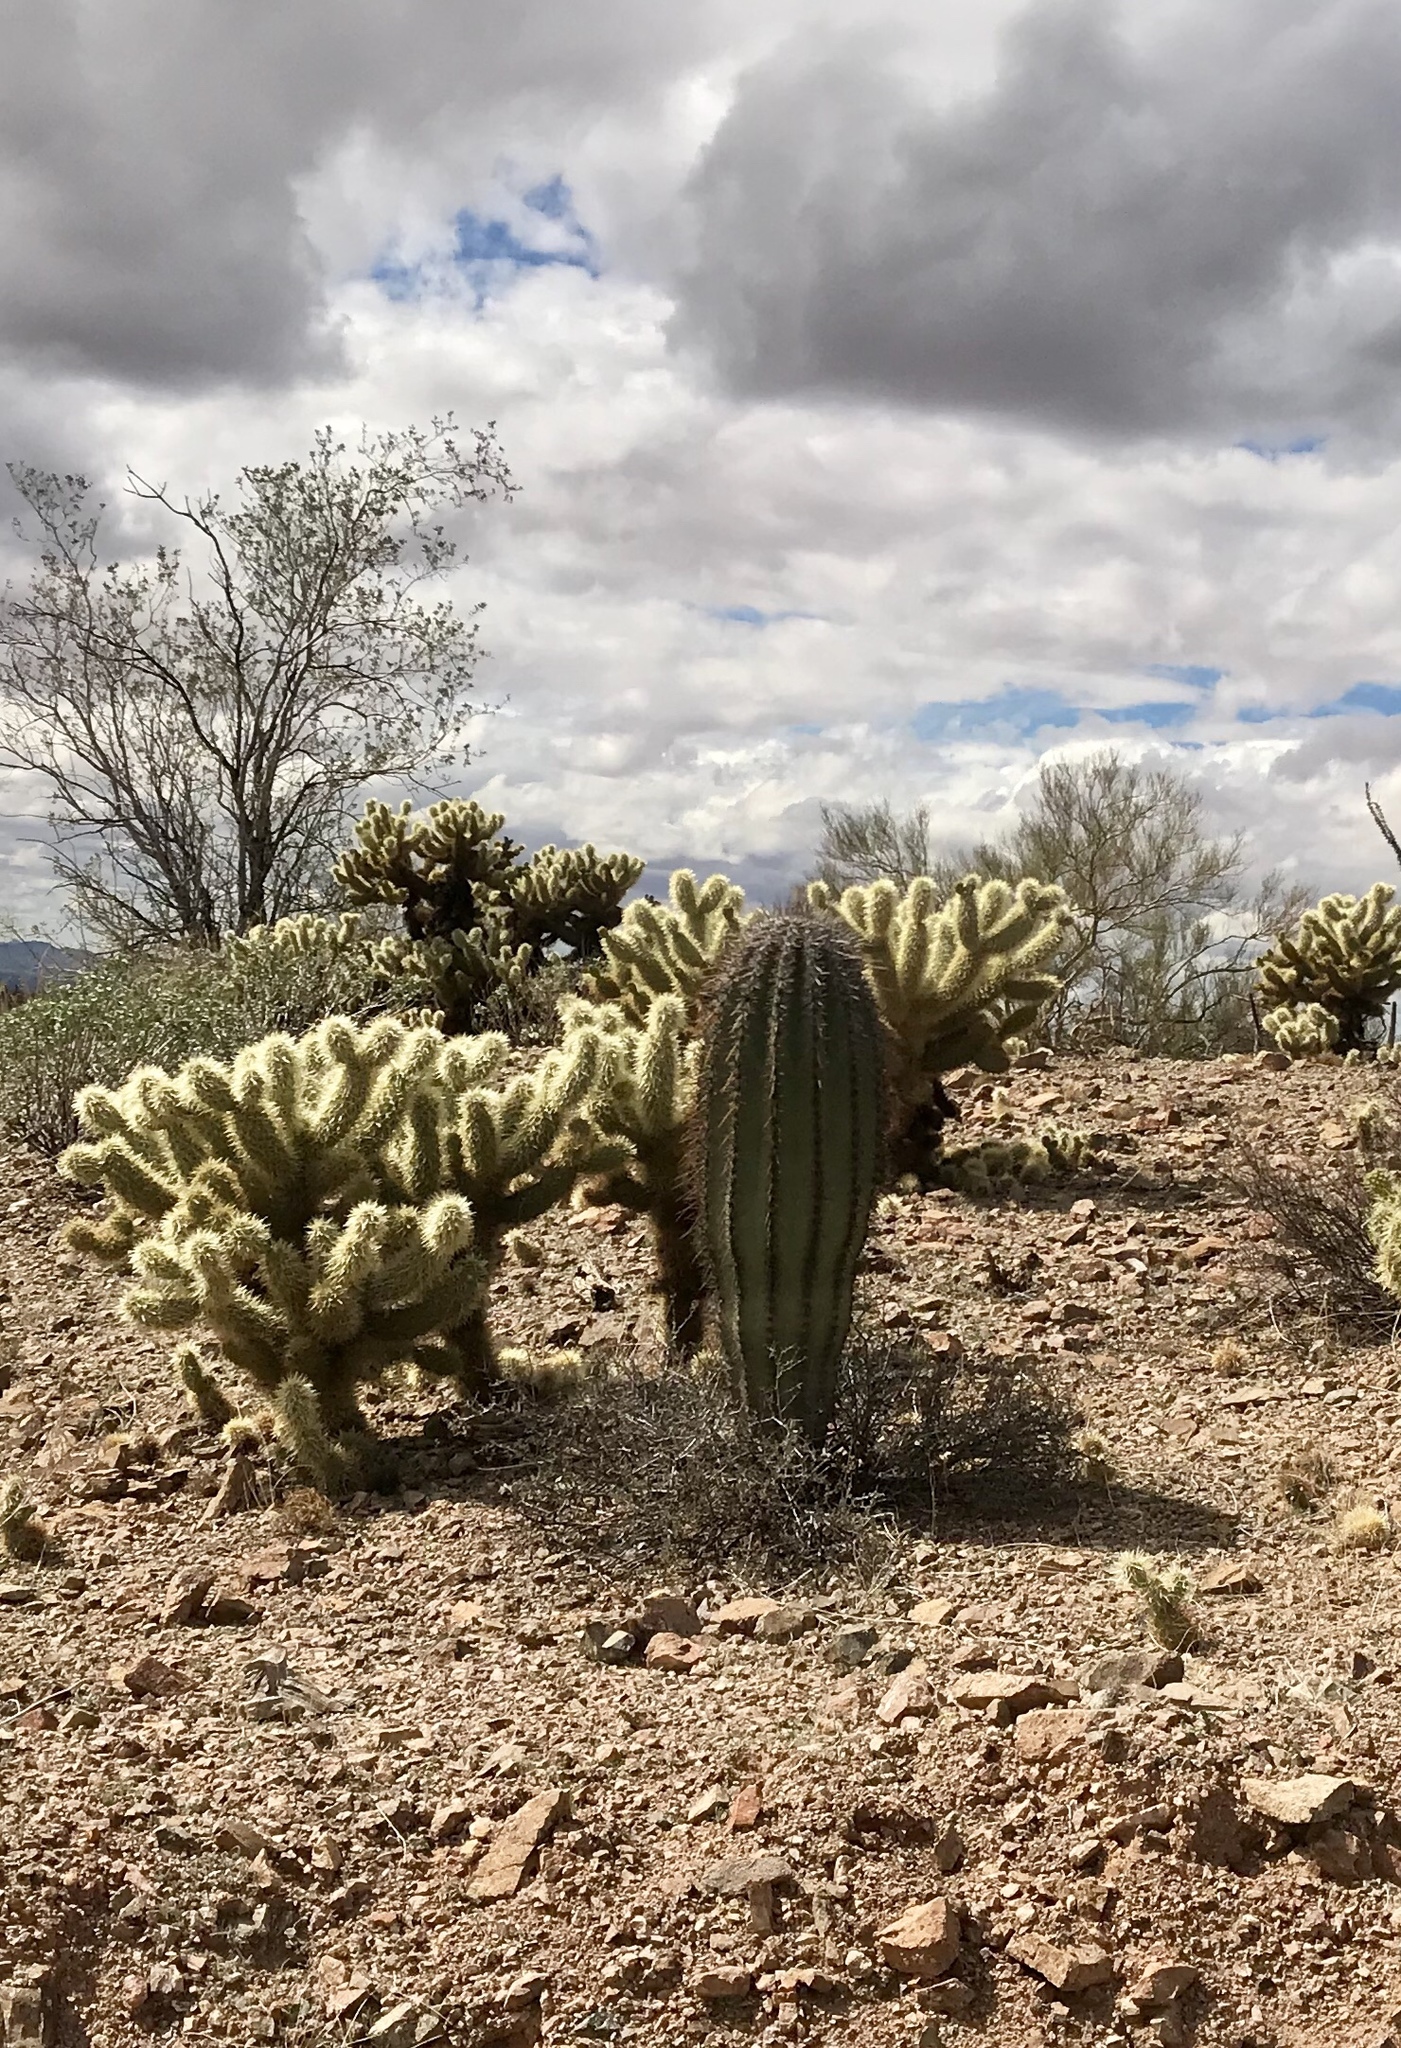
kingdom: Plantae
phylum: Tracheophyta
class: Magnoliopsida
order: Caryophyllales
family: Cactaceae
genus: Carnegiea
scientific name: Carnegiea gigantea
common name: Saguaro
